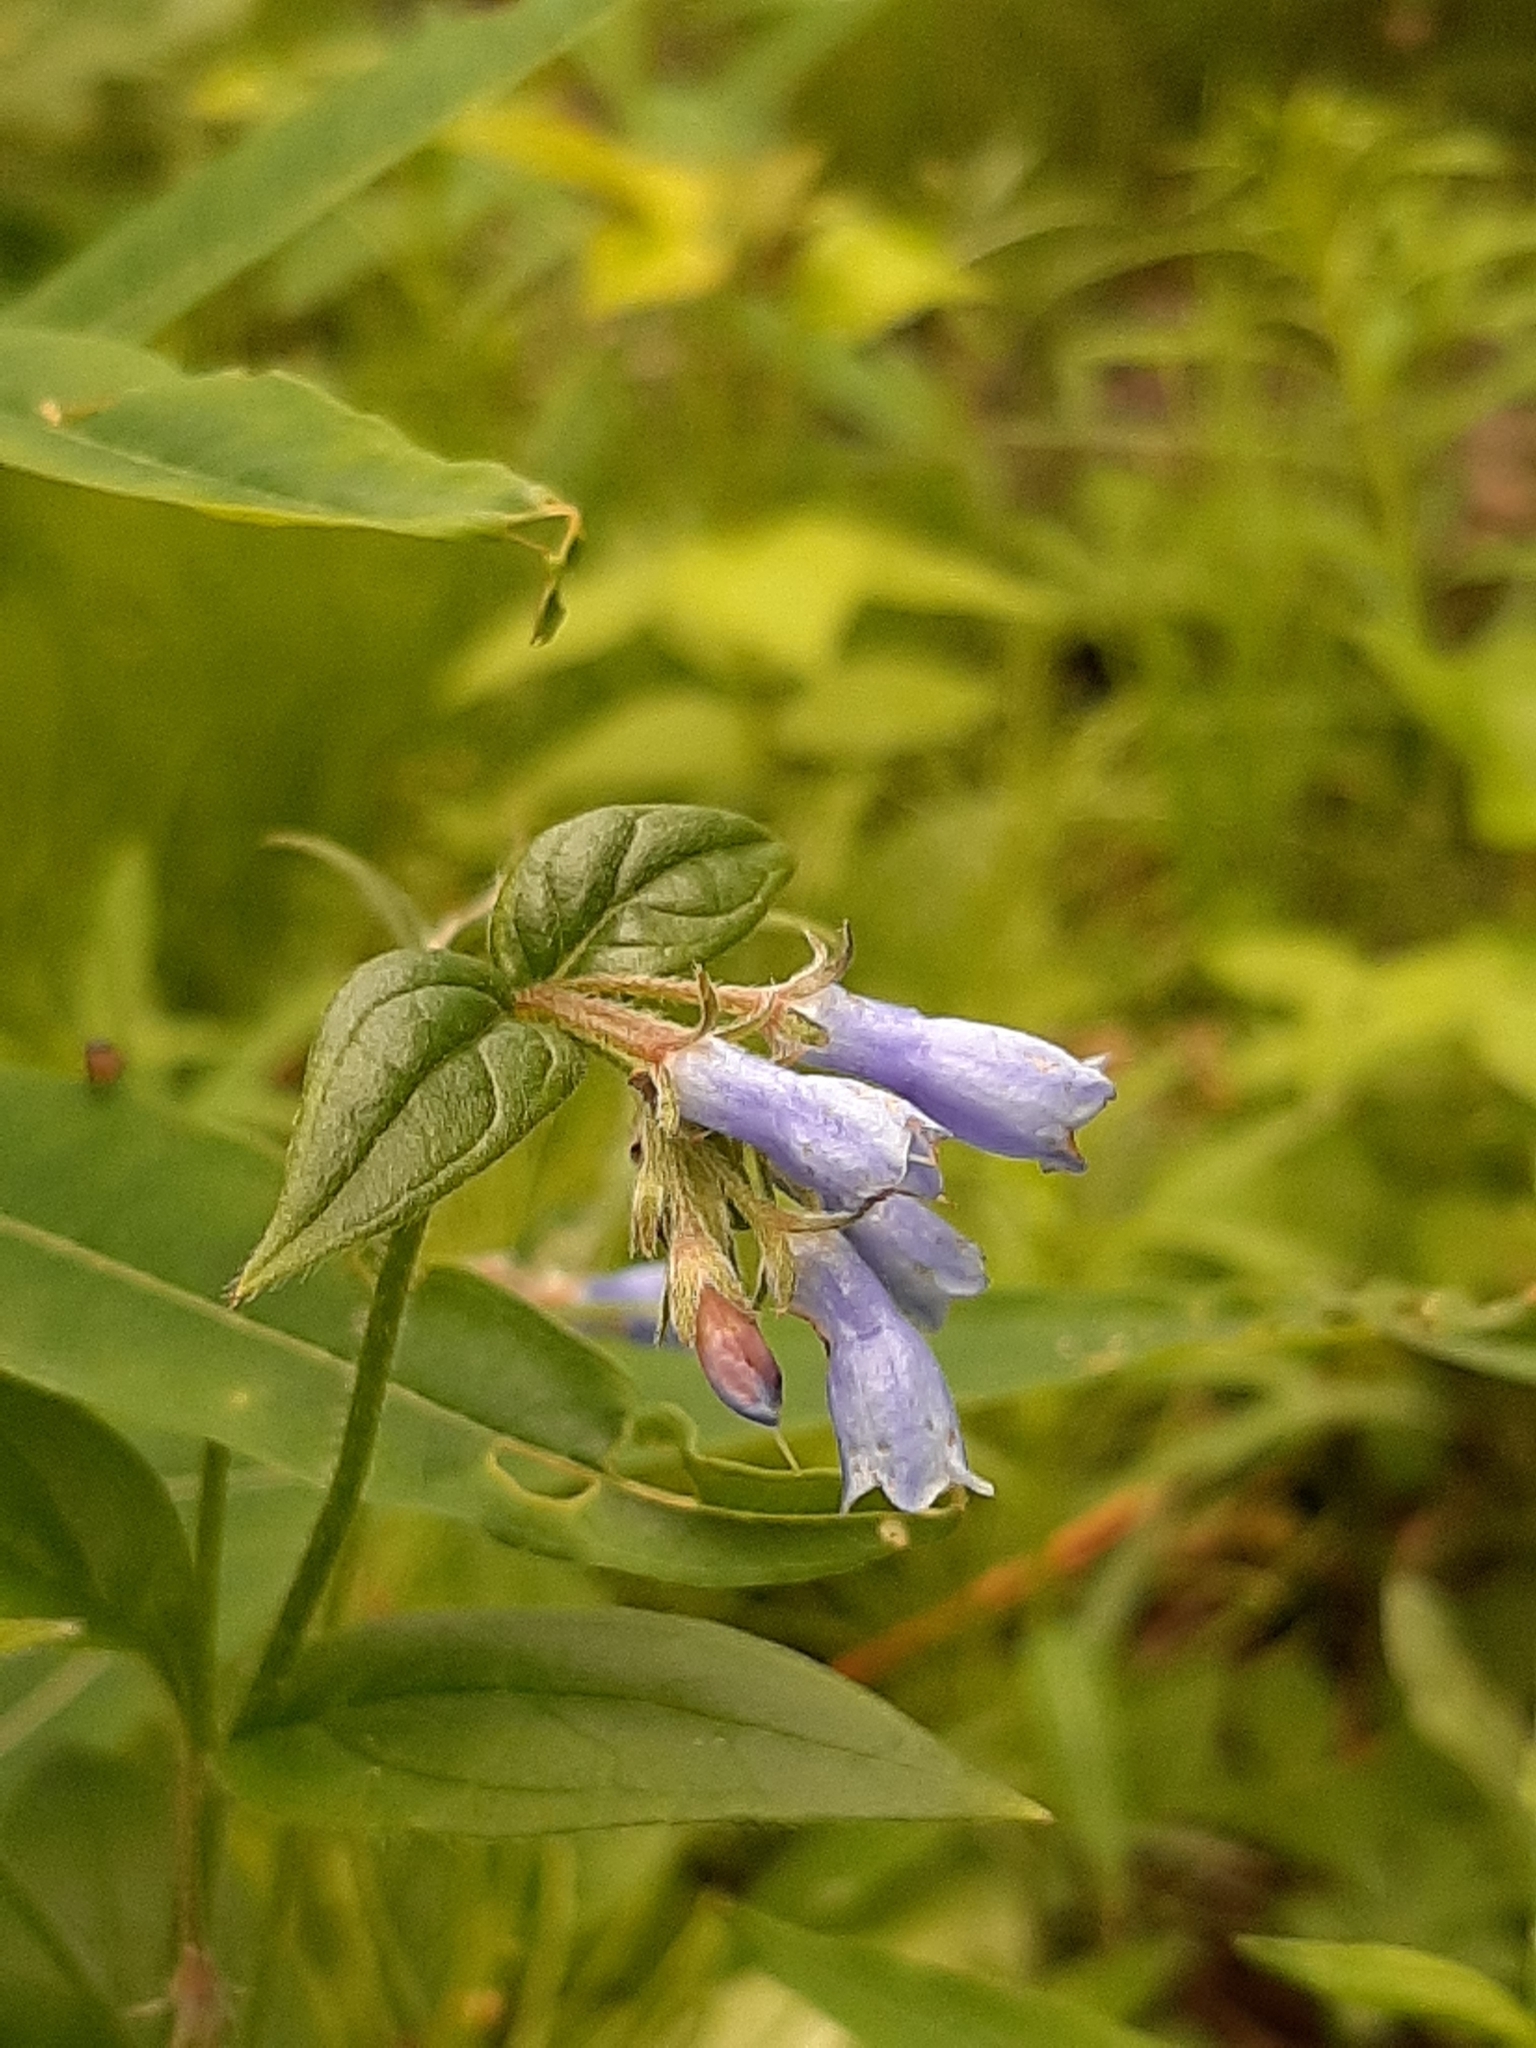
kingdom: Plantae
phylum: Tracheophyta
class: Magnoliopsida
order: Boraginales
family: Boraginaceae
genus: Mertensia
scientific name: Mertensia paniculata
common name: Panicled bluebells
